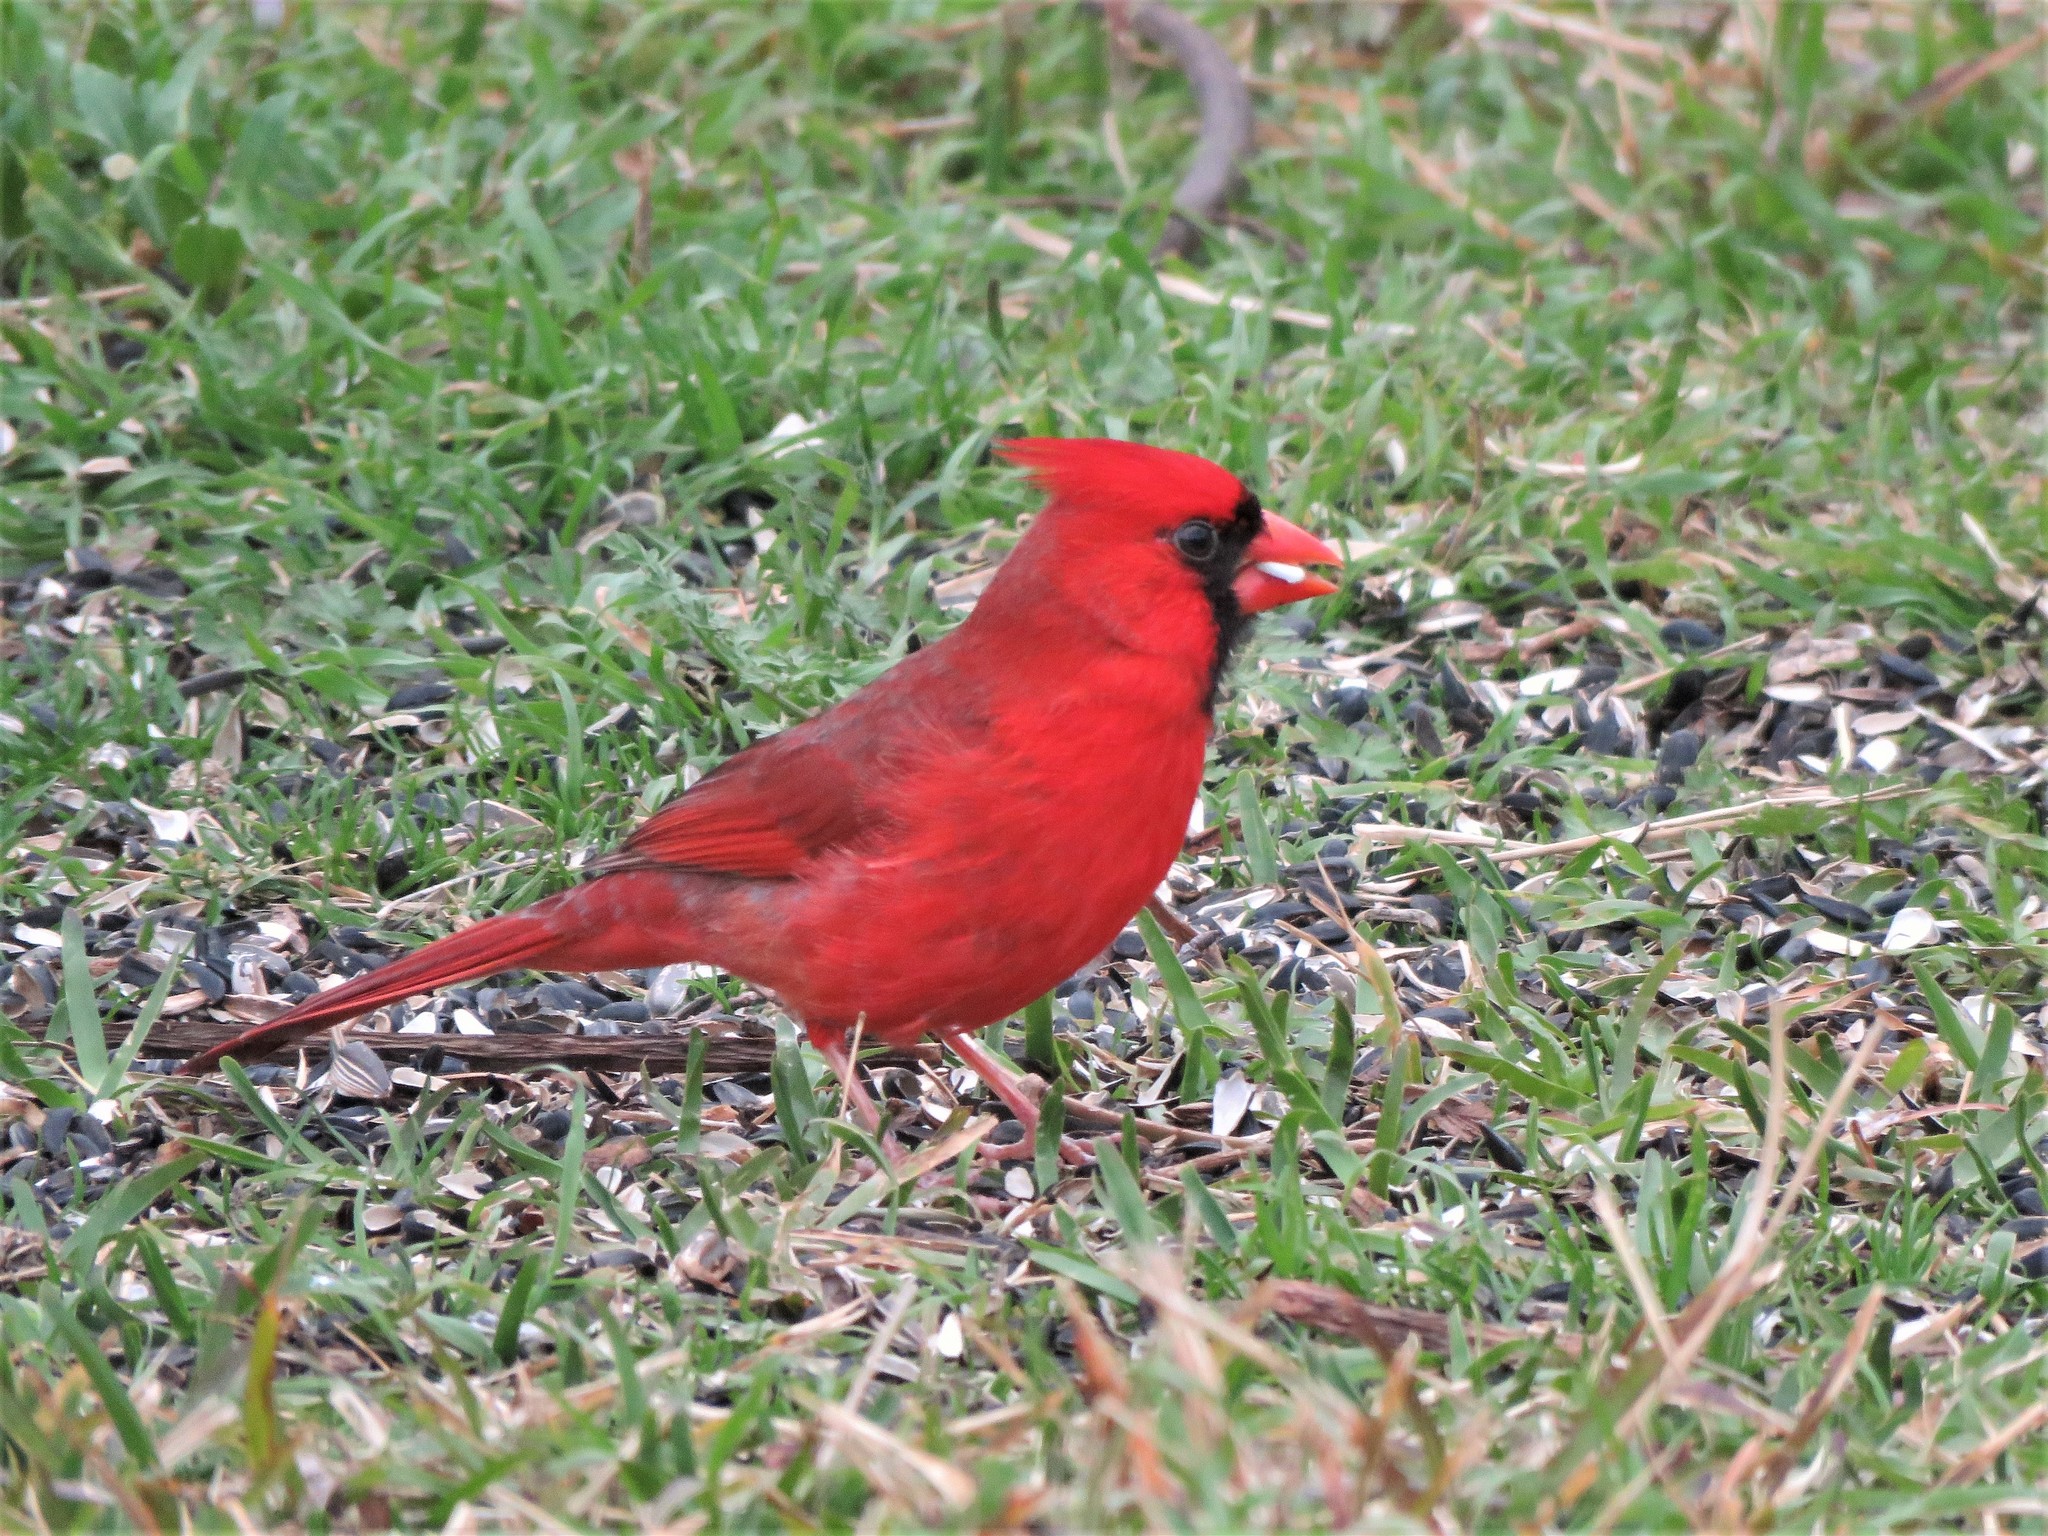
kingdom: Animalia
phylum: Chordata
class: Aves
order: Passeriformes
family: Cardinalidae
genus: Cardinalis
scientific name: Cardinalis cardinalis
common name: Northern cardinal
